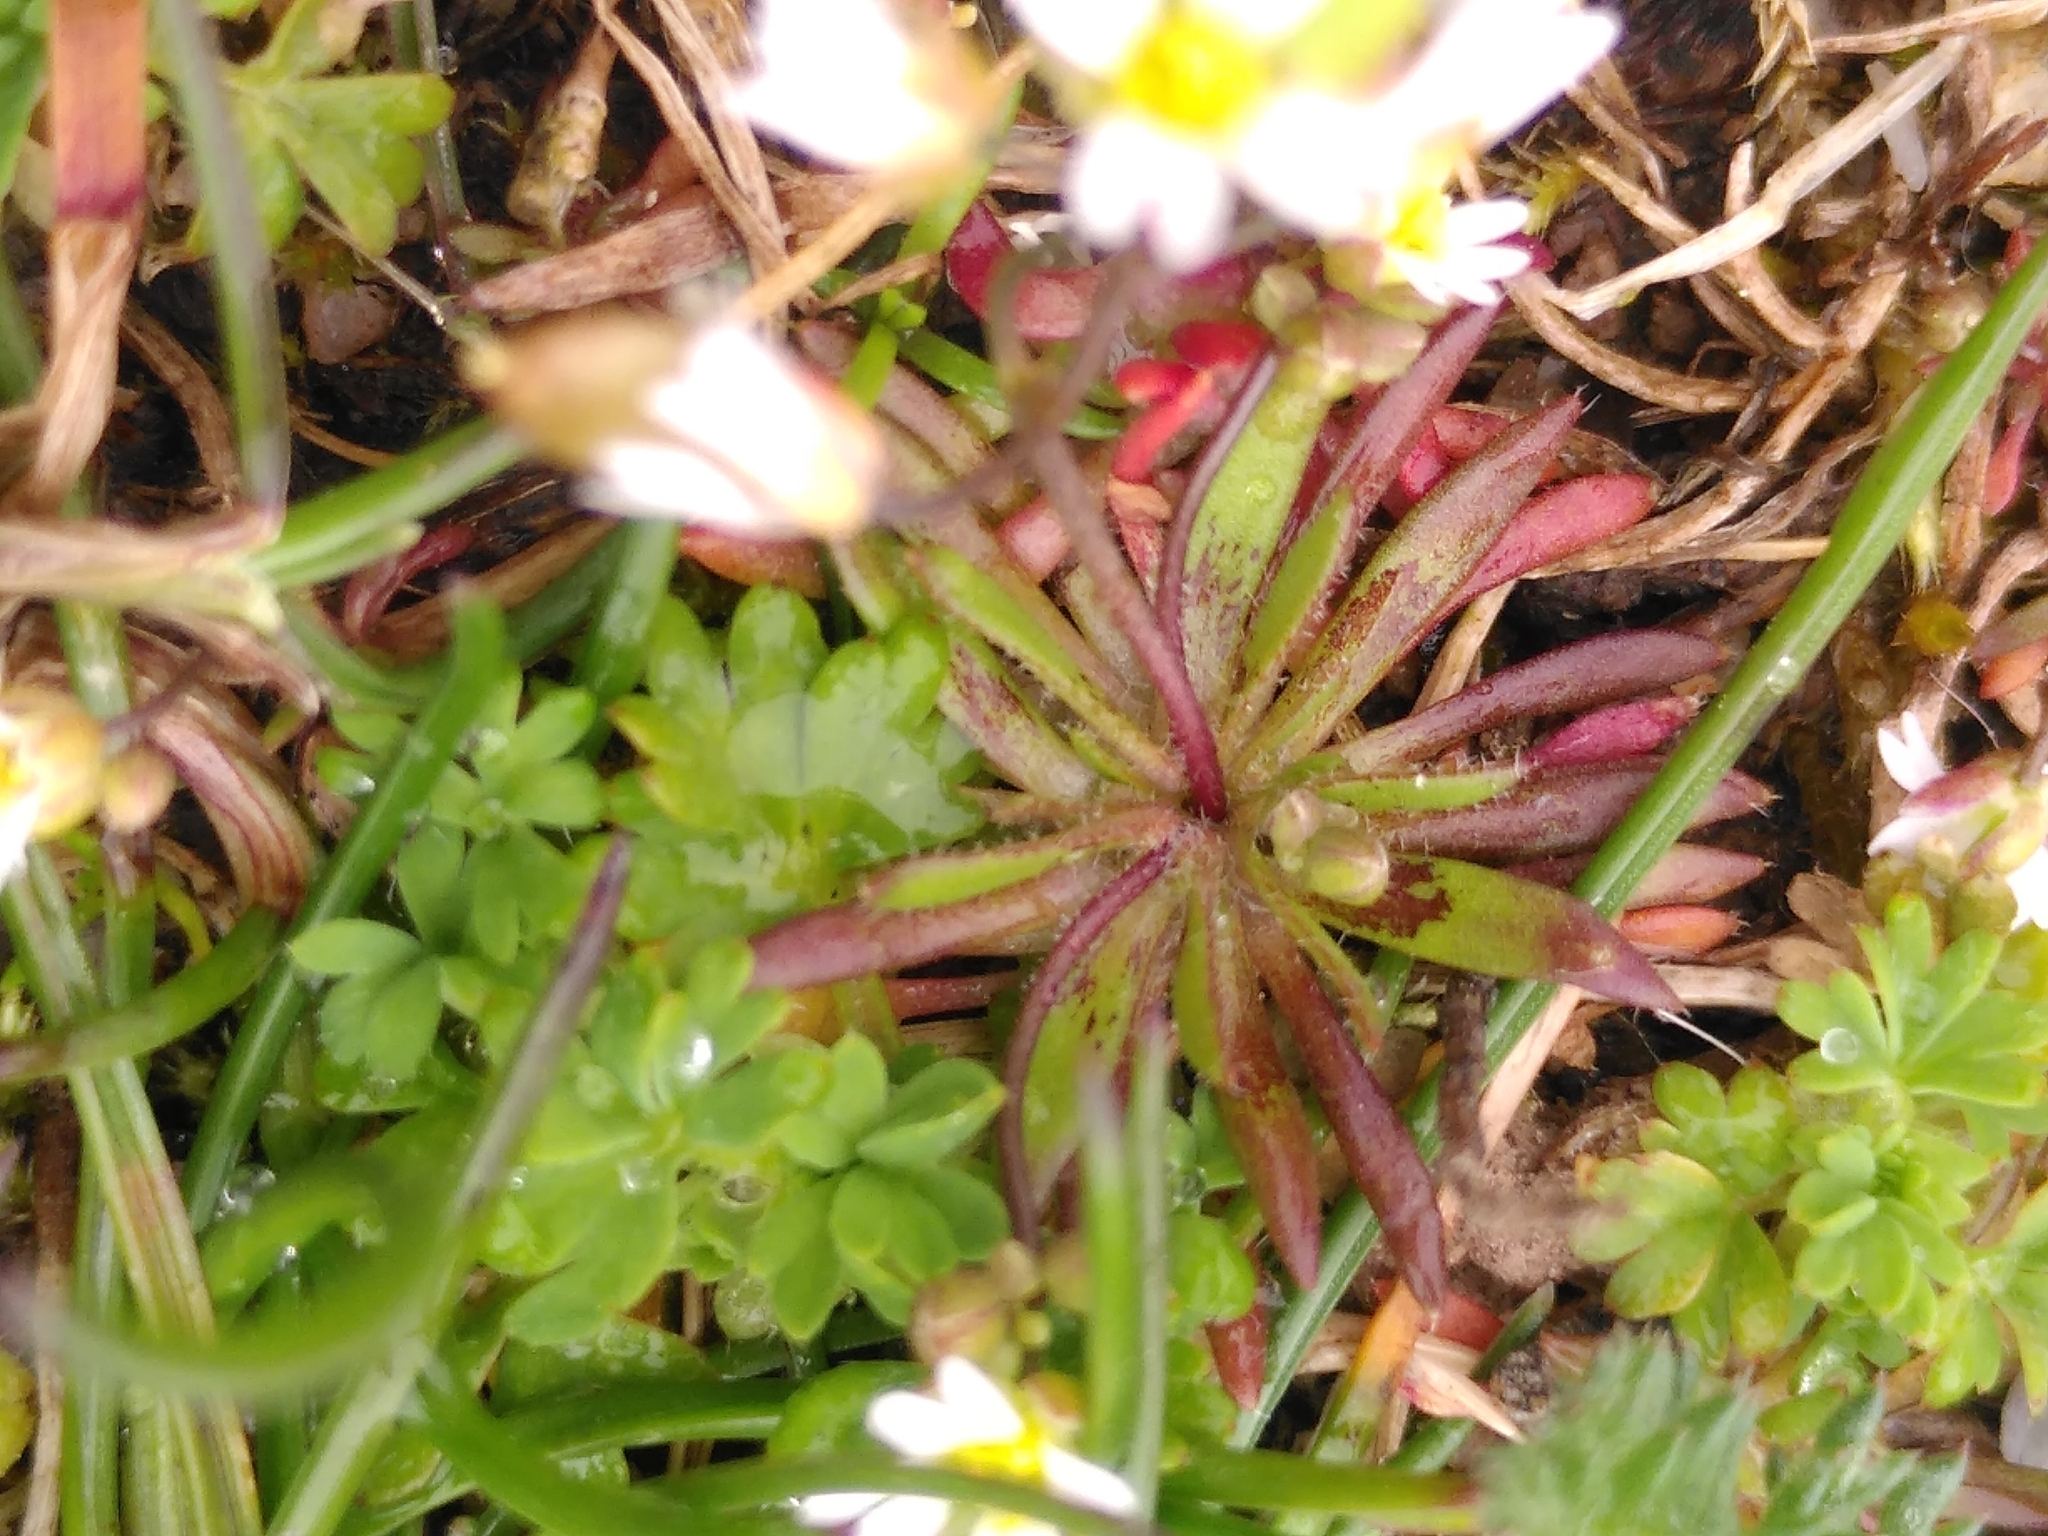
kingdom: Plantae
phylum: Tracheophyta
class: Magnoliopsida
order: Brassicales
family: Brassicaceae
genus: Draba
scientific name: Draba verna
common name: Spring draba
